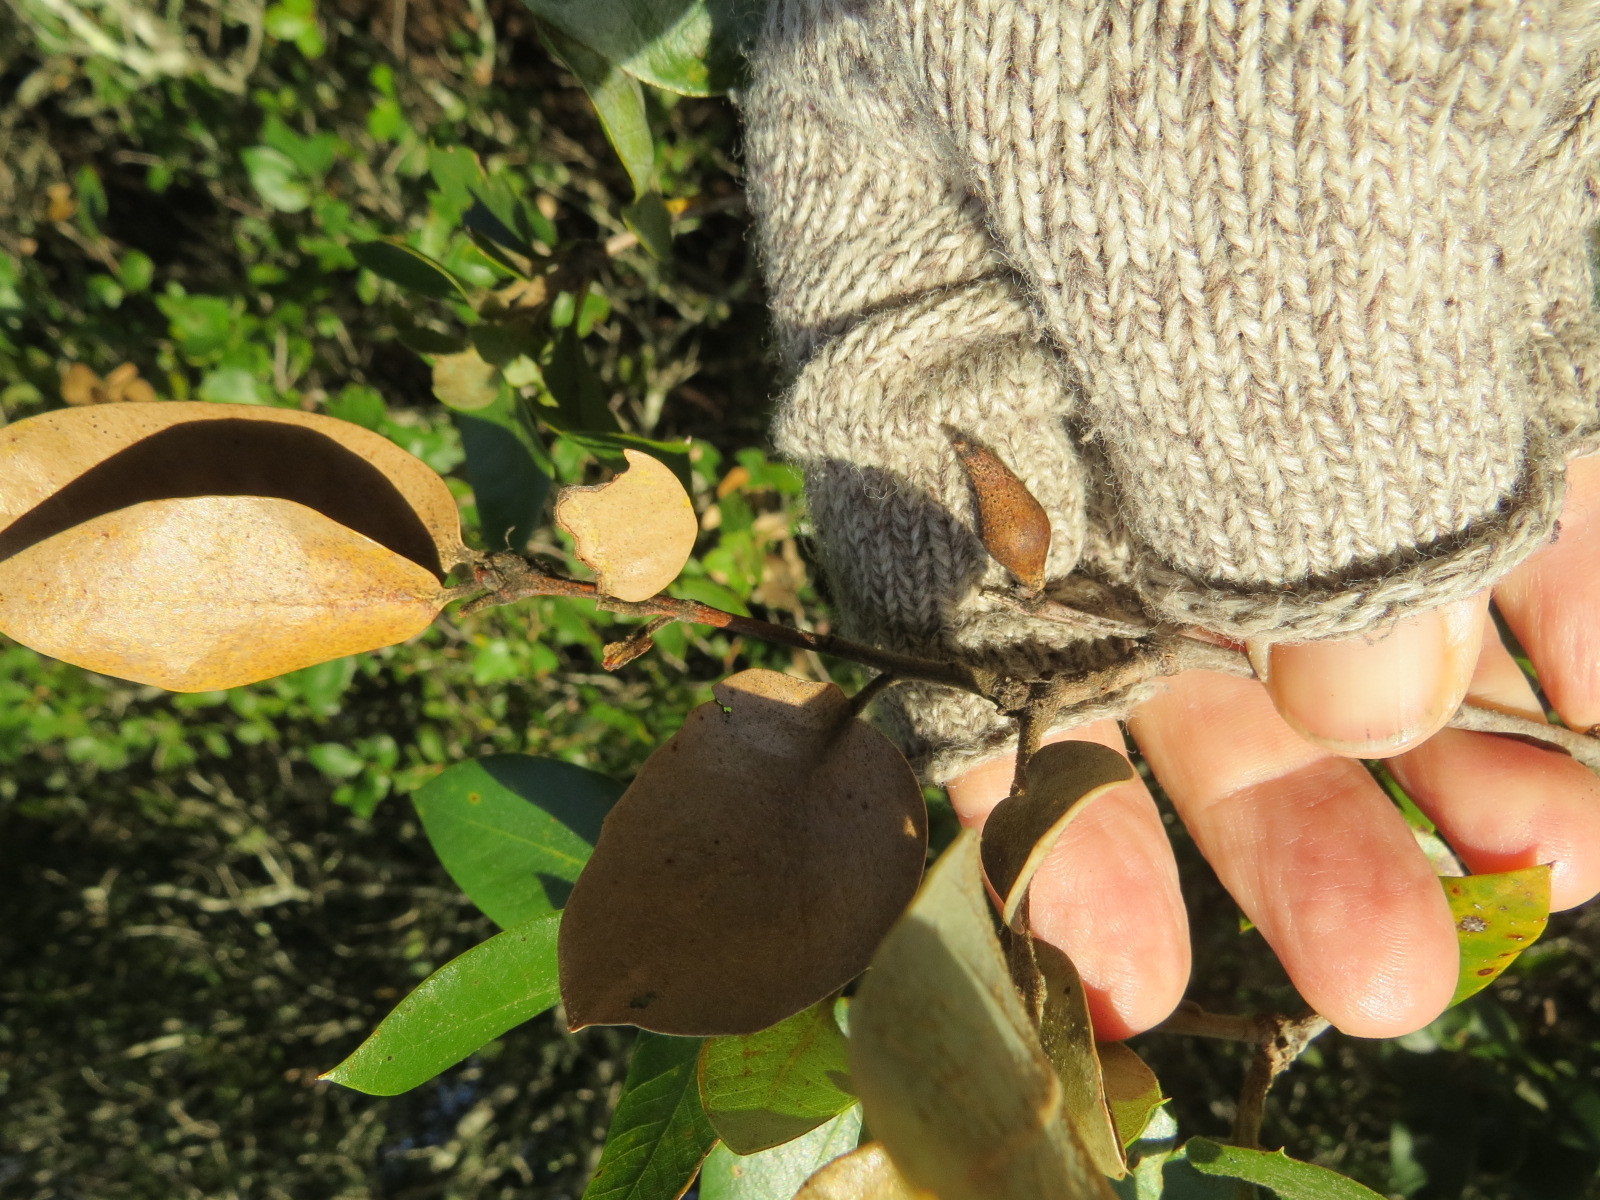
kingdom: Animalia
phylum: Arthropoda
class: Insecta
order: Hymenoptera
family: Cynipidae
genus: Heteroecus
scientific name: Heteroecus pacificus
